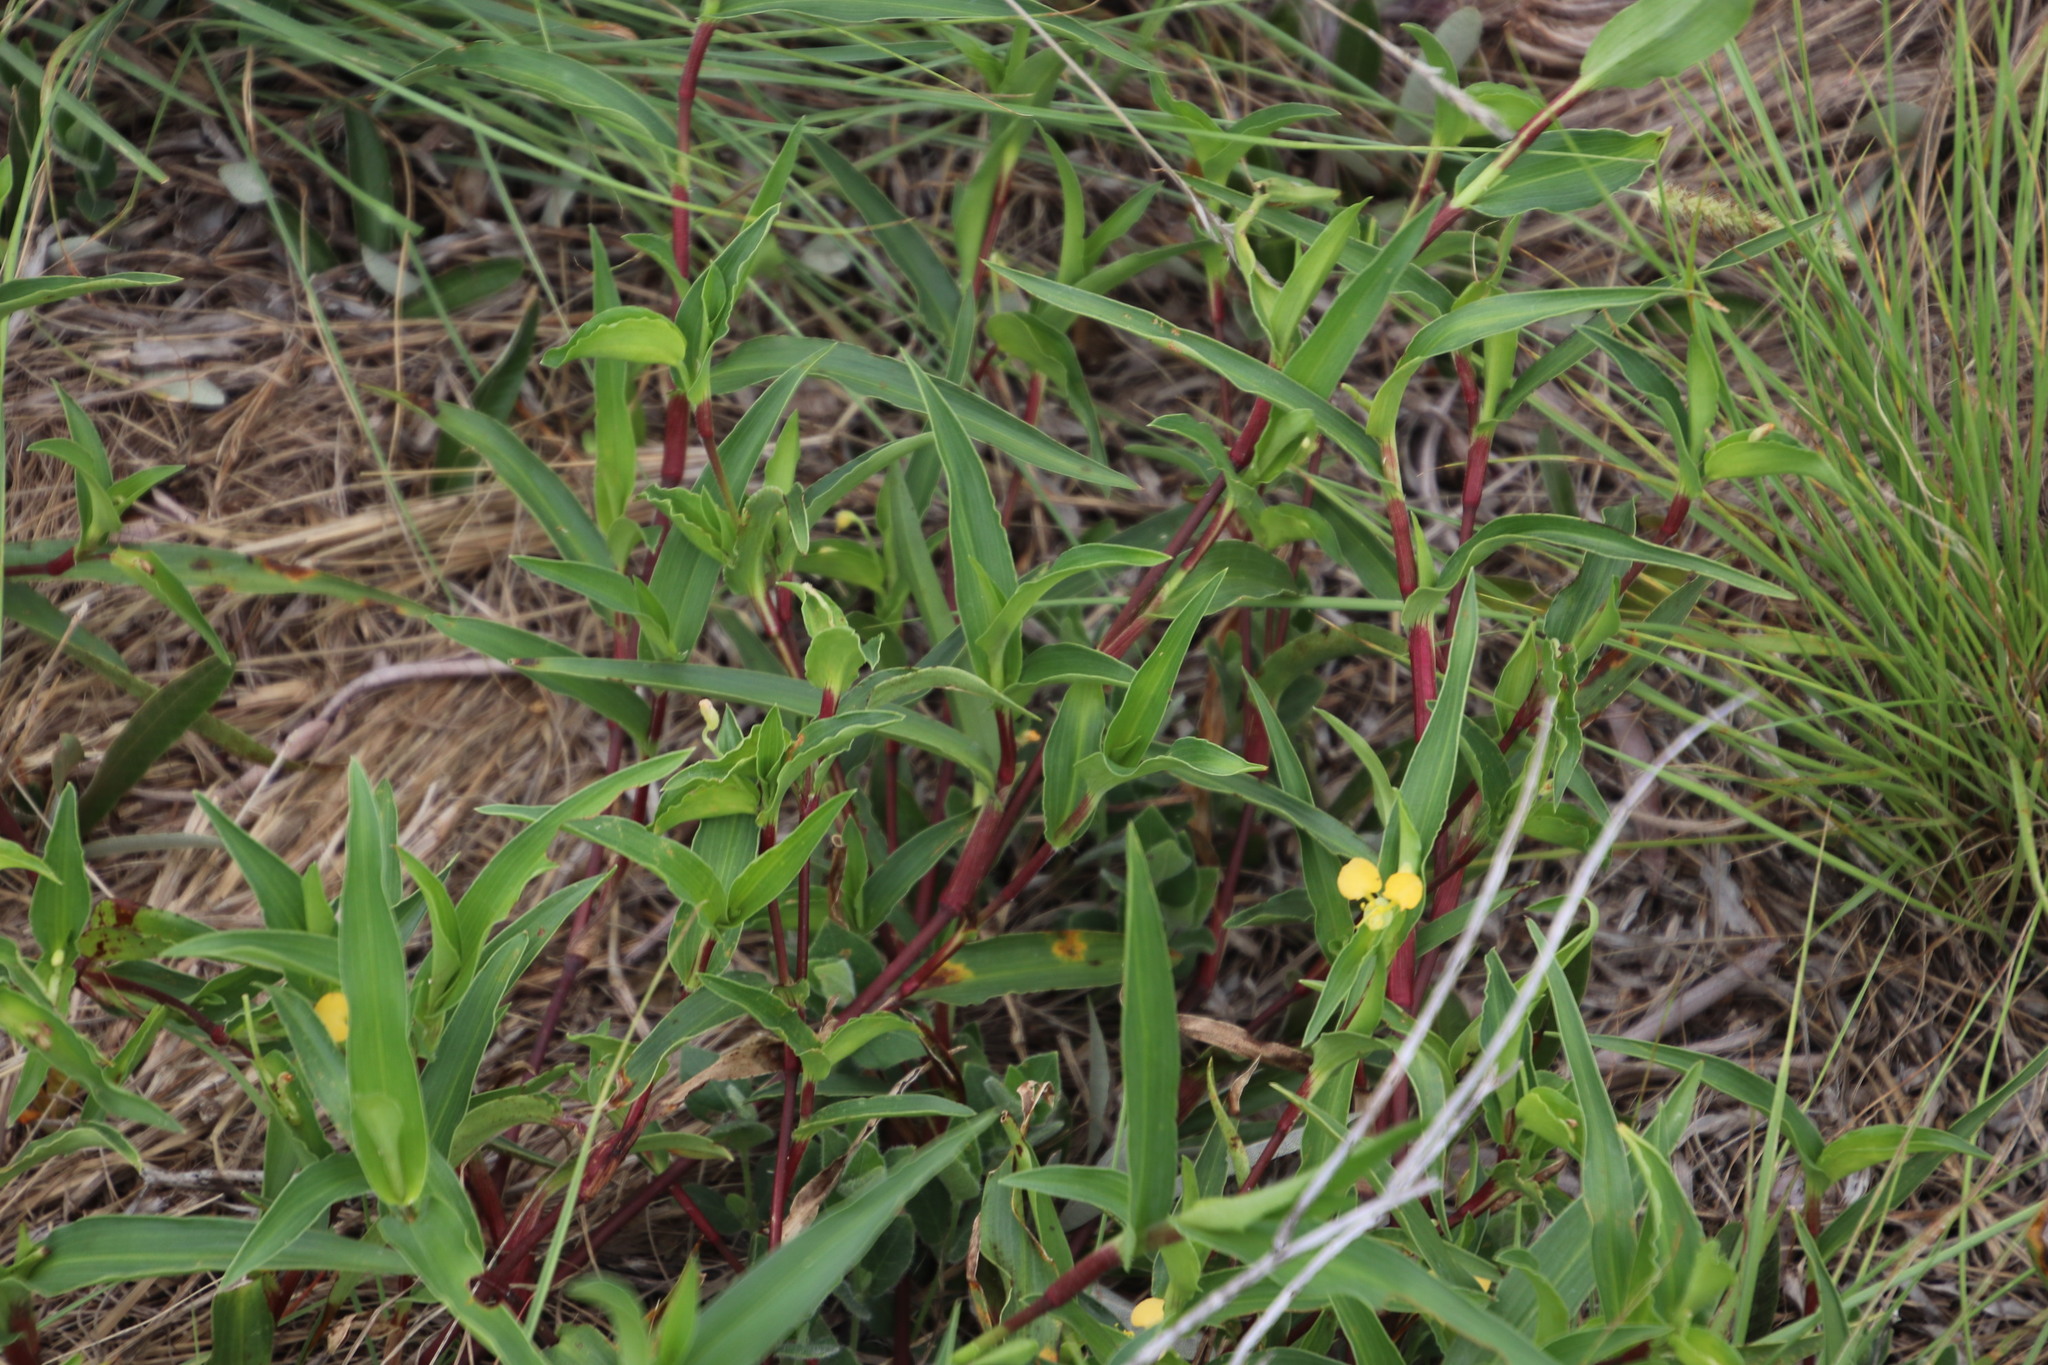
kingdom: Plantae
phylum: Tracheophyta
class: Liliopsida
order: Commelinales
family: Commelinaceae
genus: Commelina
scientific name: Commelina africana
